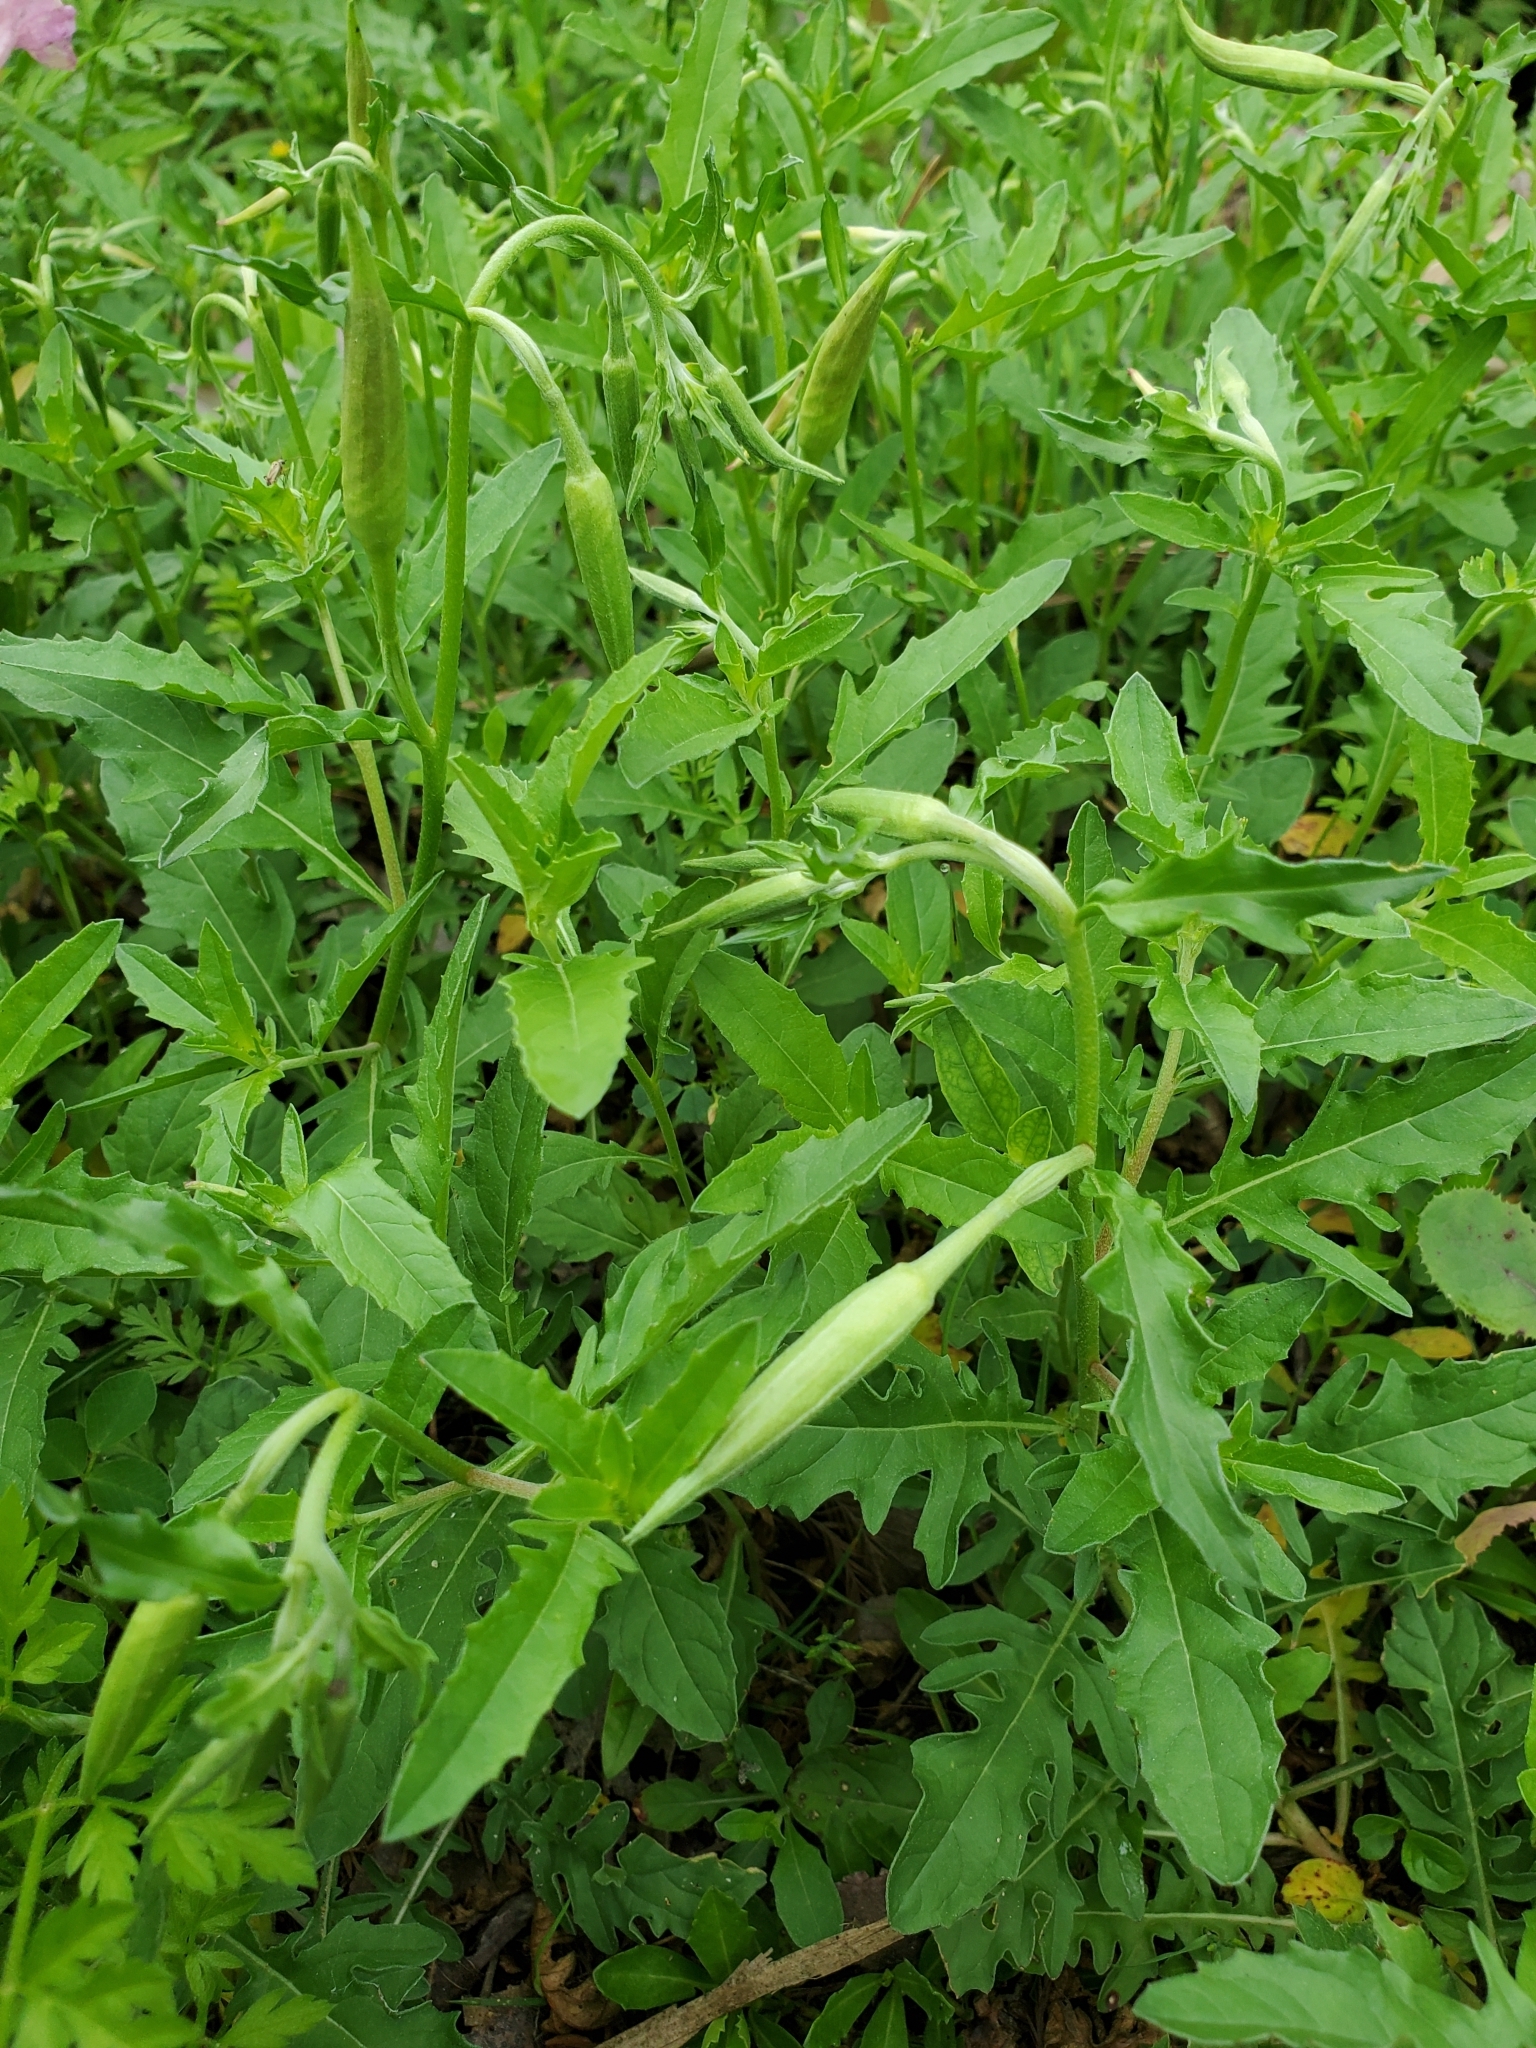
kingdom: Plantae
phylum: Tracheophyta
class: Magnoliopsida
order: Myrtales
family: Onagraceae
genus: Oenothera
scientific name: Oenothera speciosa
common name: White evening-primrose
